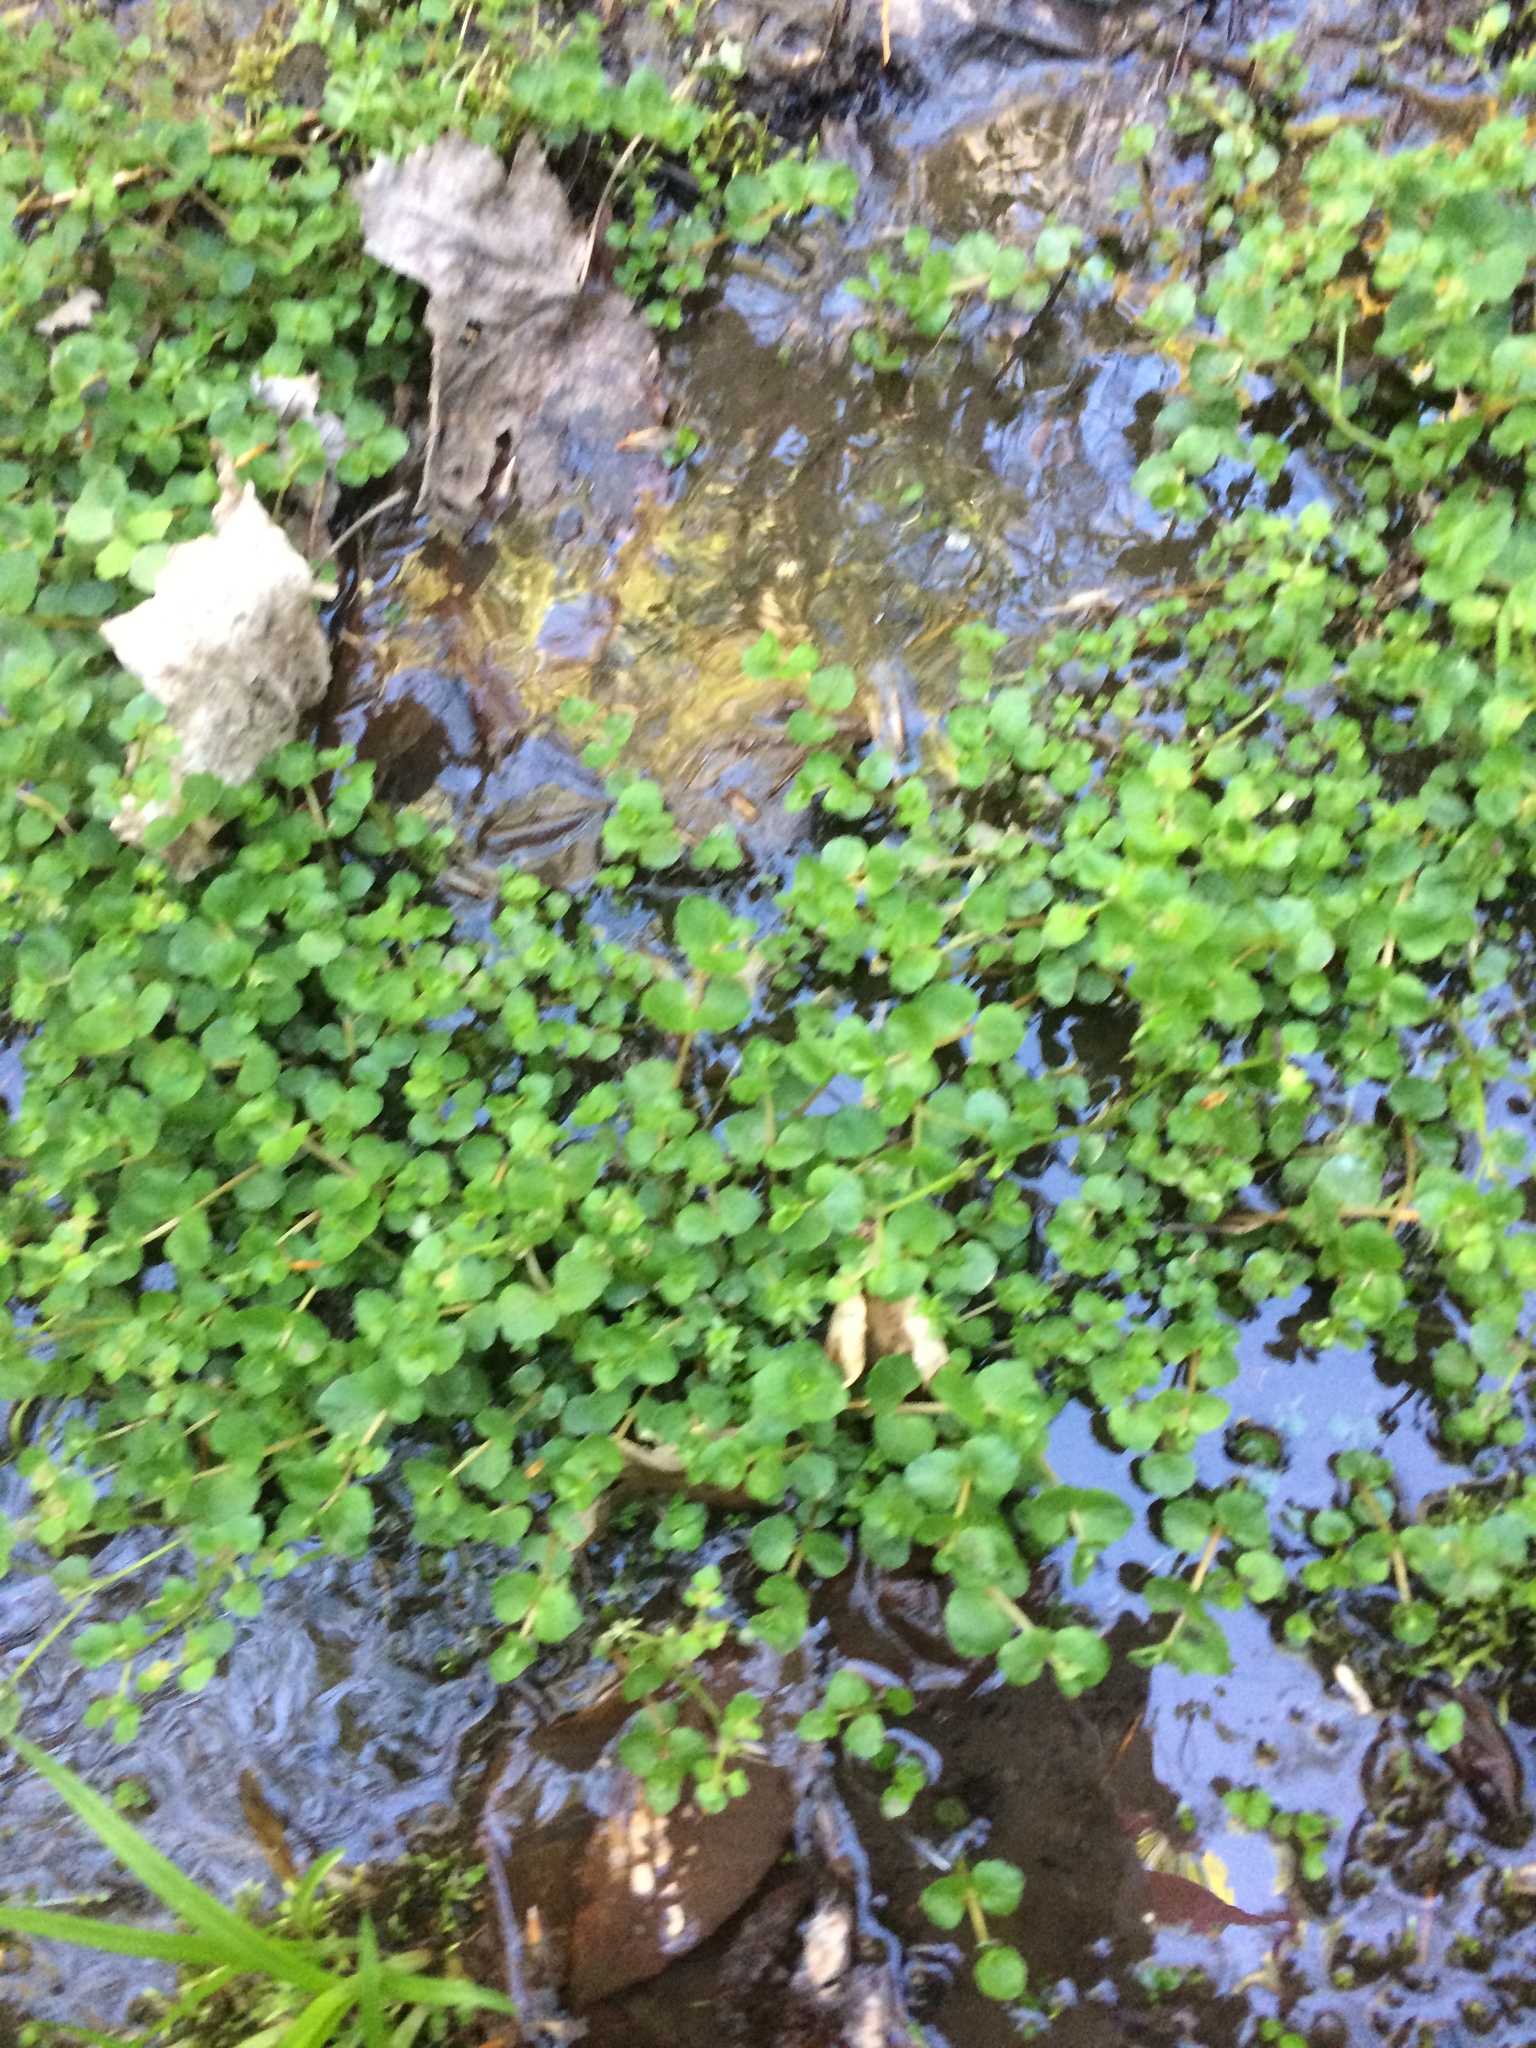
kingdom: Plantae
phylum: Tracheophyta
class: Magnoliopsida
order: Saxifragales
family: Saxifragaceae
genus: Chrysosplenium
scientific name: Chrysosplenium americanum
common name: American golden-saxifrage
